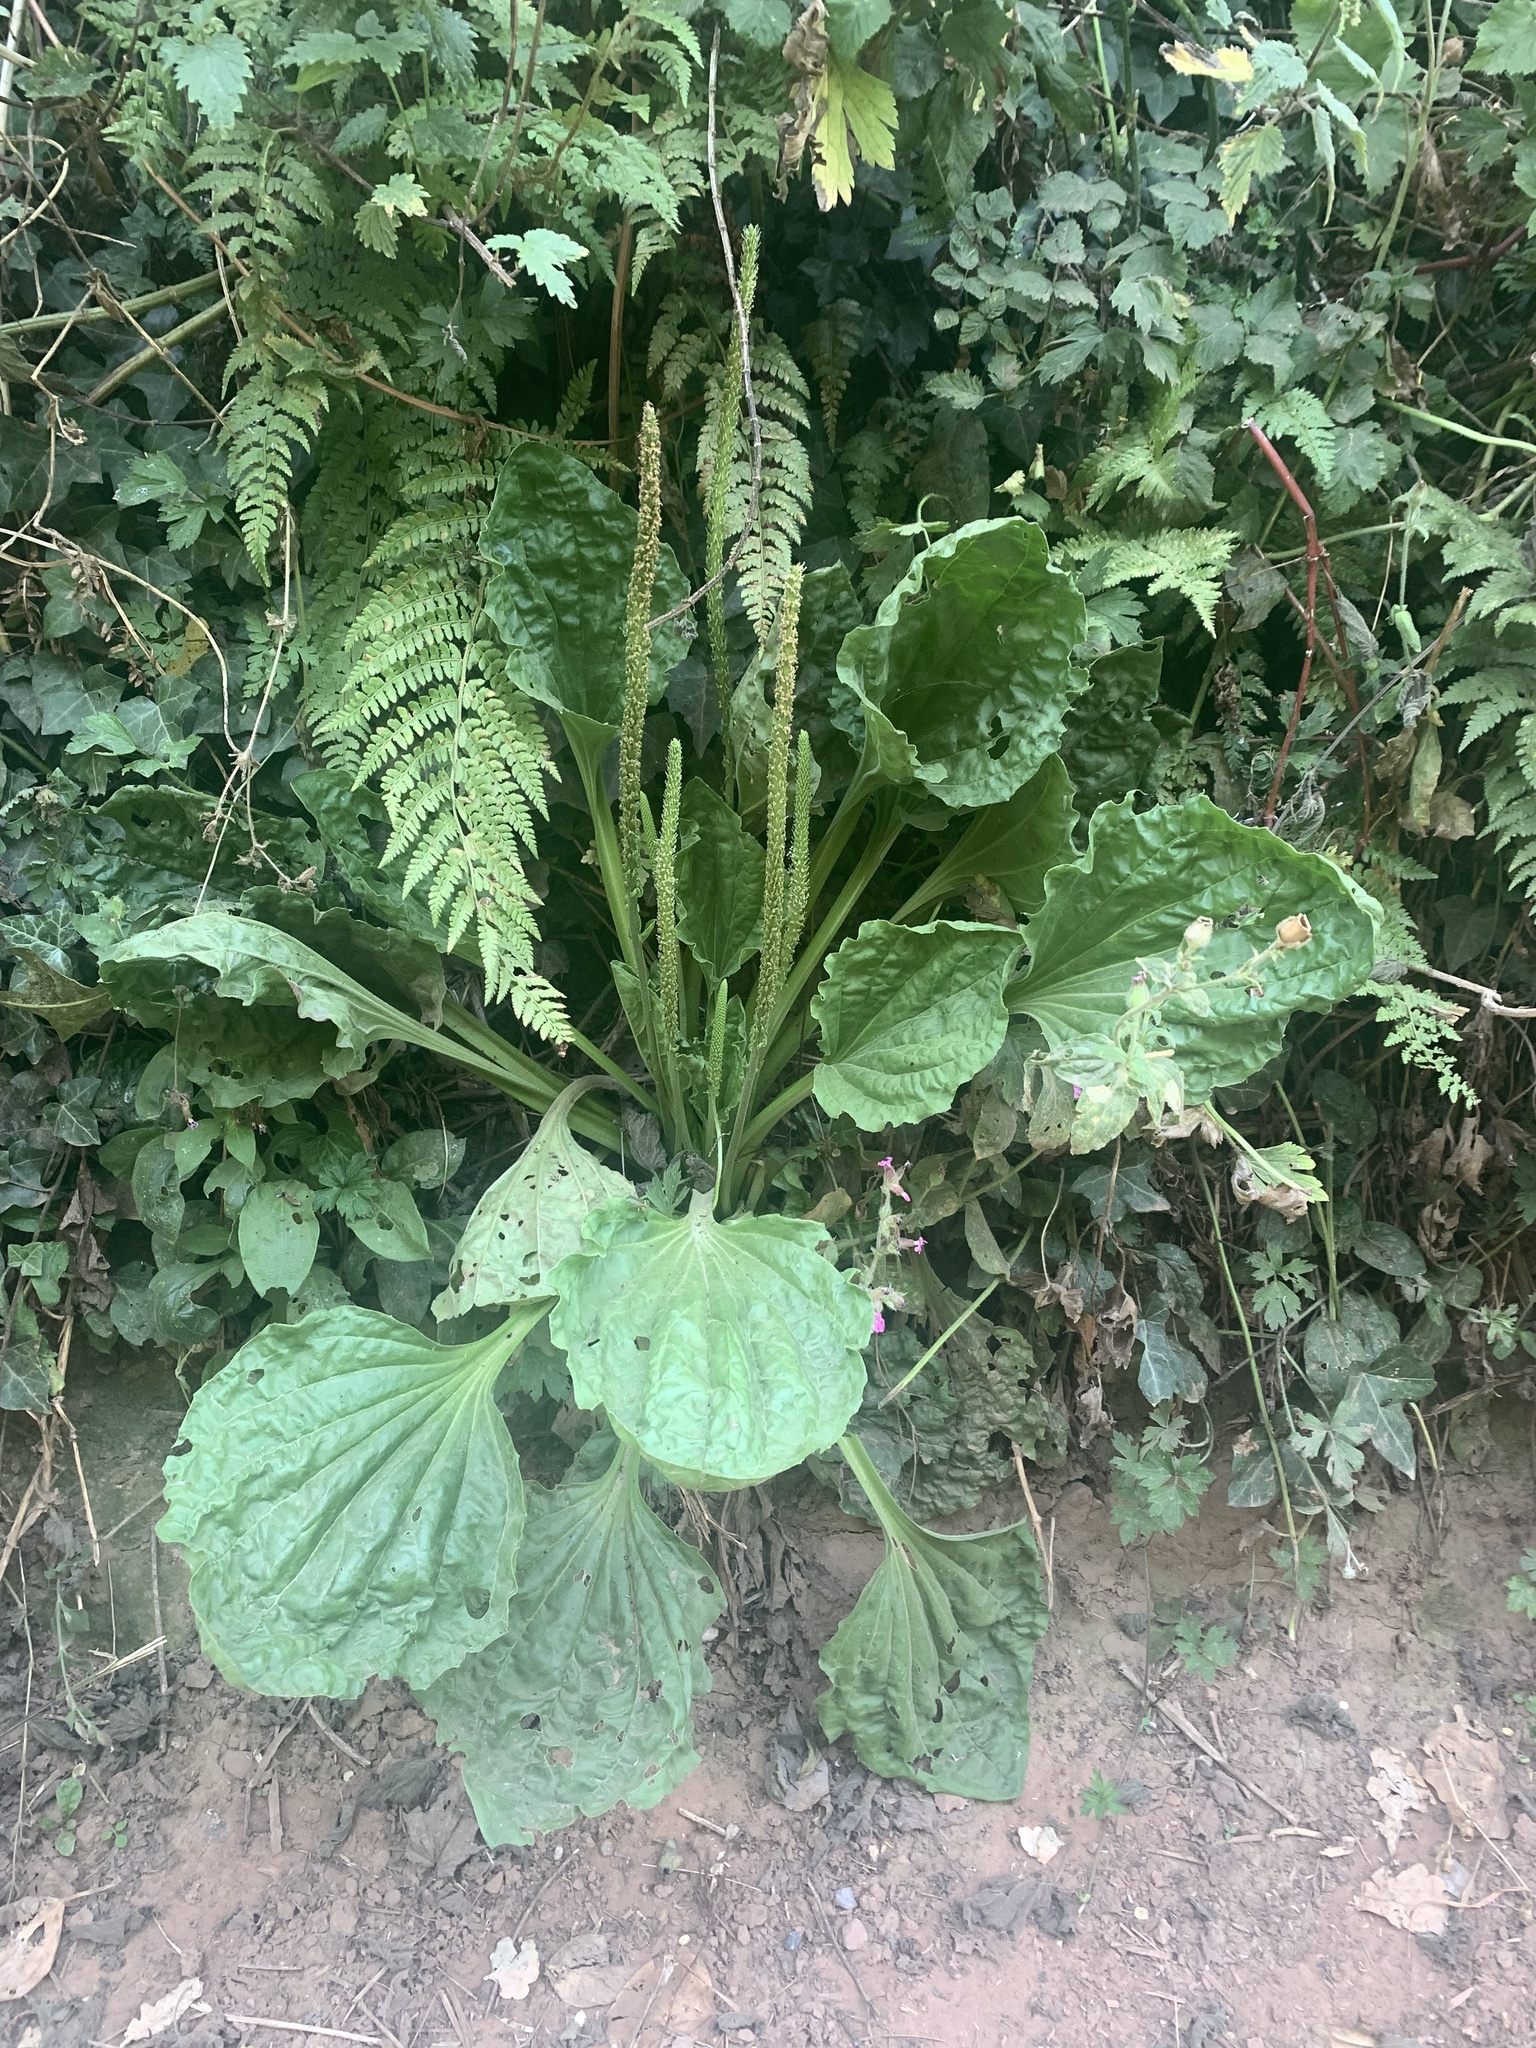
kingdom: Plantae
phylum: Tracheophyta
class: Magnoliopsida
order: Lamiales
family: Plantaginaceae
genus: Plantago
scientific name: Plantago major
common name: Common plantain
